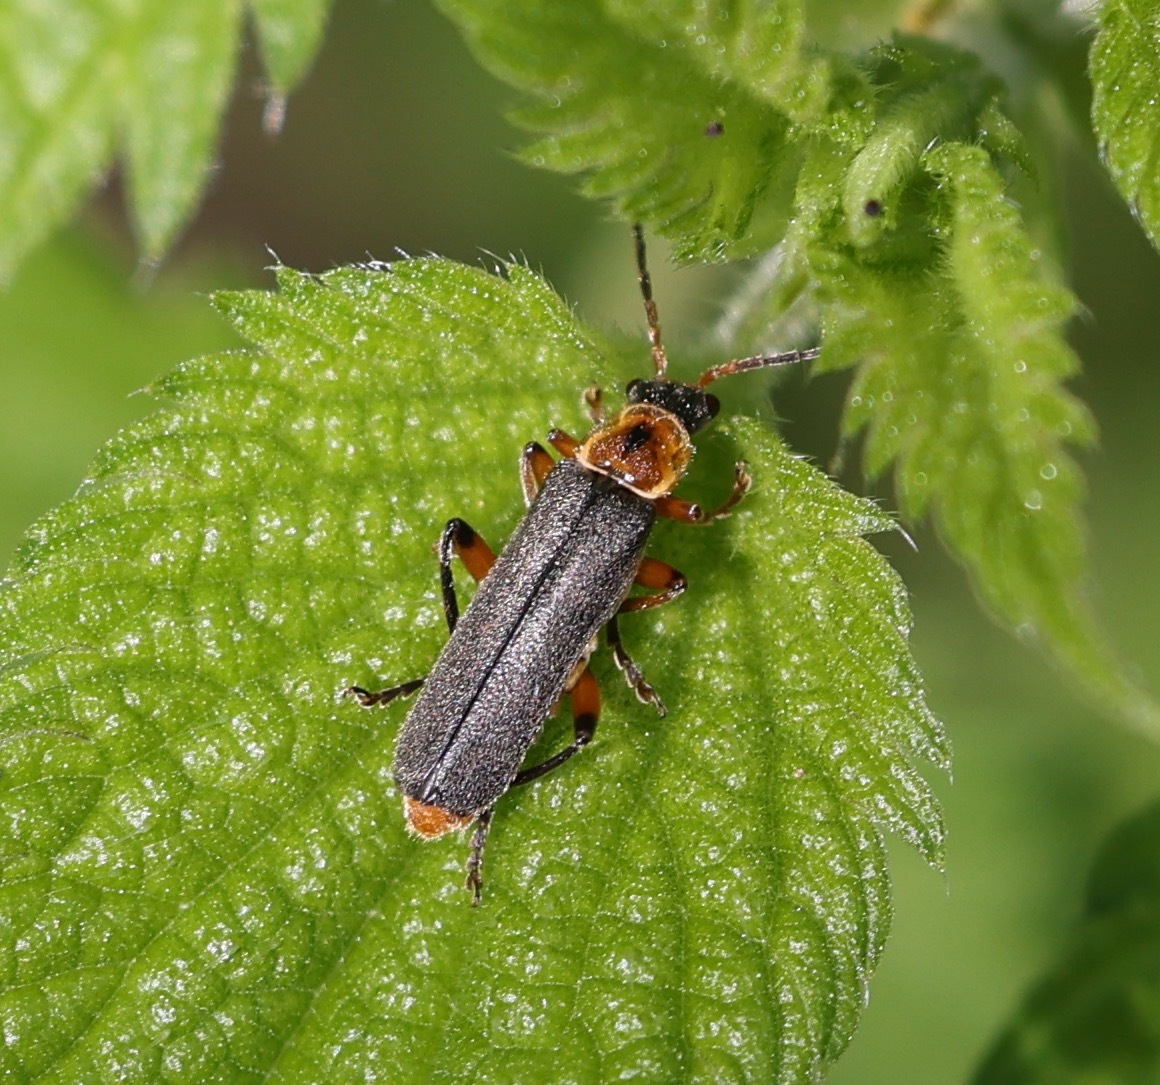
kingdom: Animalia
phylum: Arthropoda
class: Insecta
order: Coleoptera
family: Cantharidae
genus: Cantharis
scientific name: Cantharis nigricans
